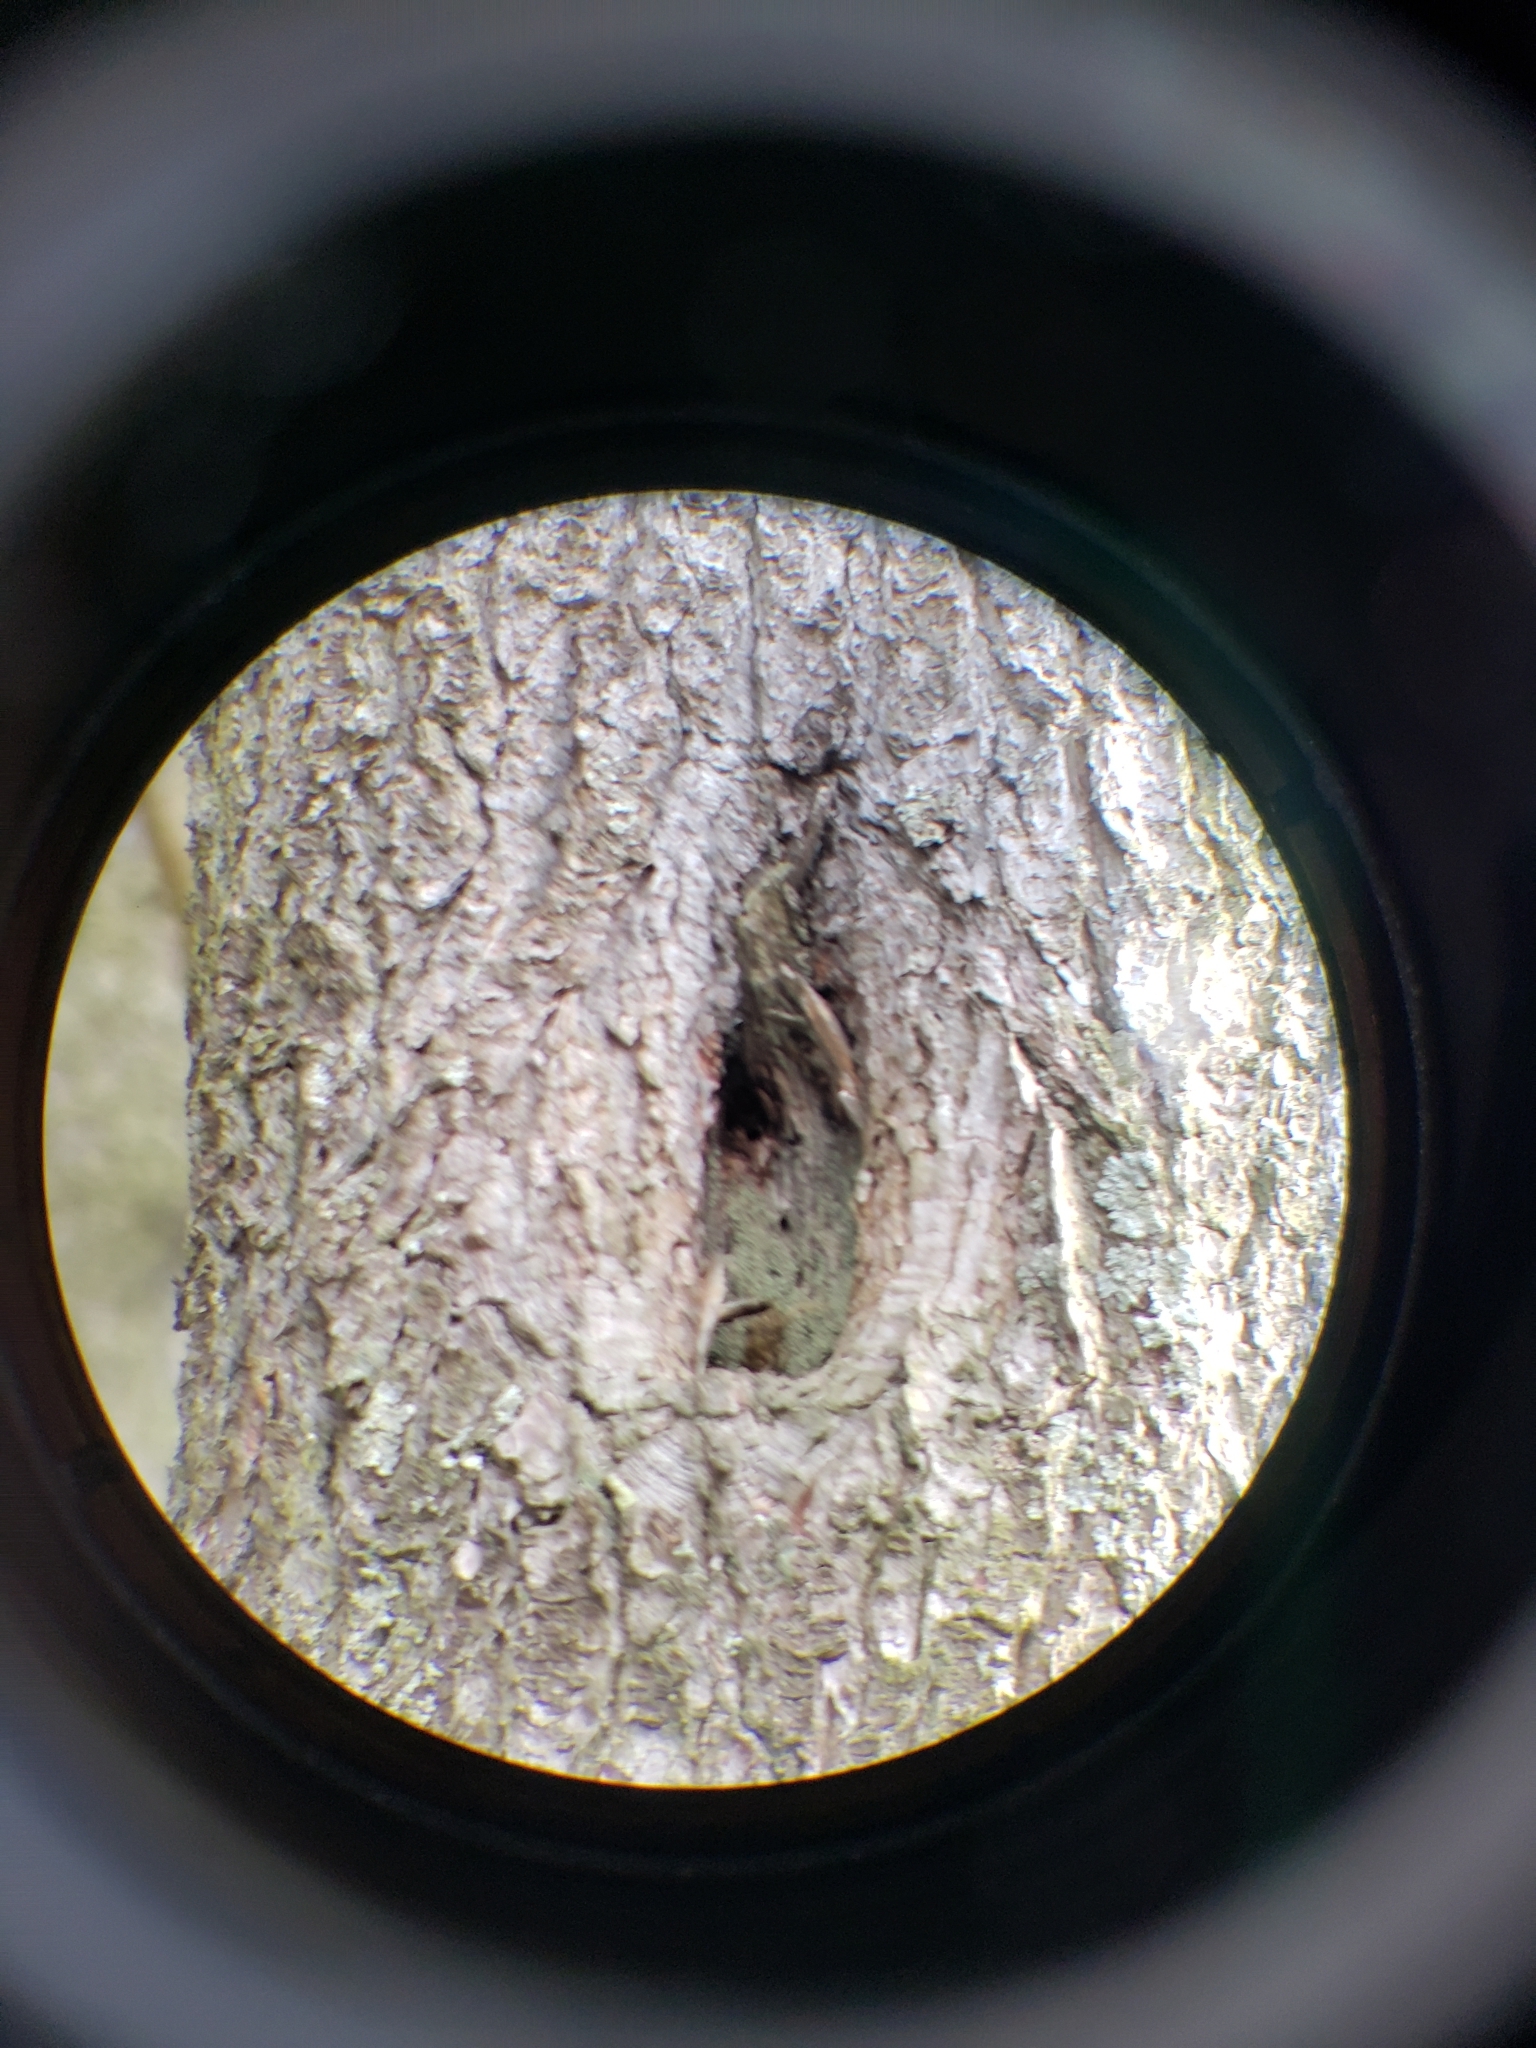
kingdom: Animalia
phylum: Chordata
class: Aves
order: Passeriformes
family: Turdidae
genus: Sialia
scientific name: Sialia sialis
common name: Eastern bluebird
